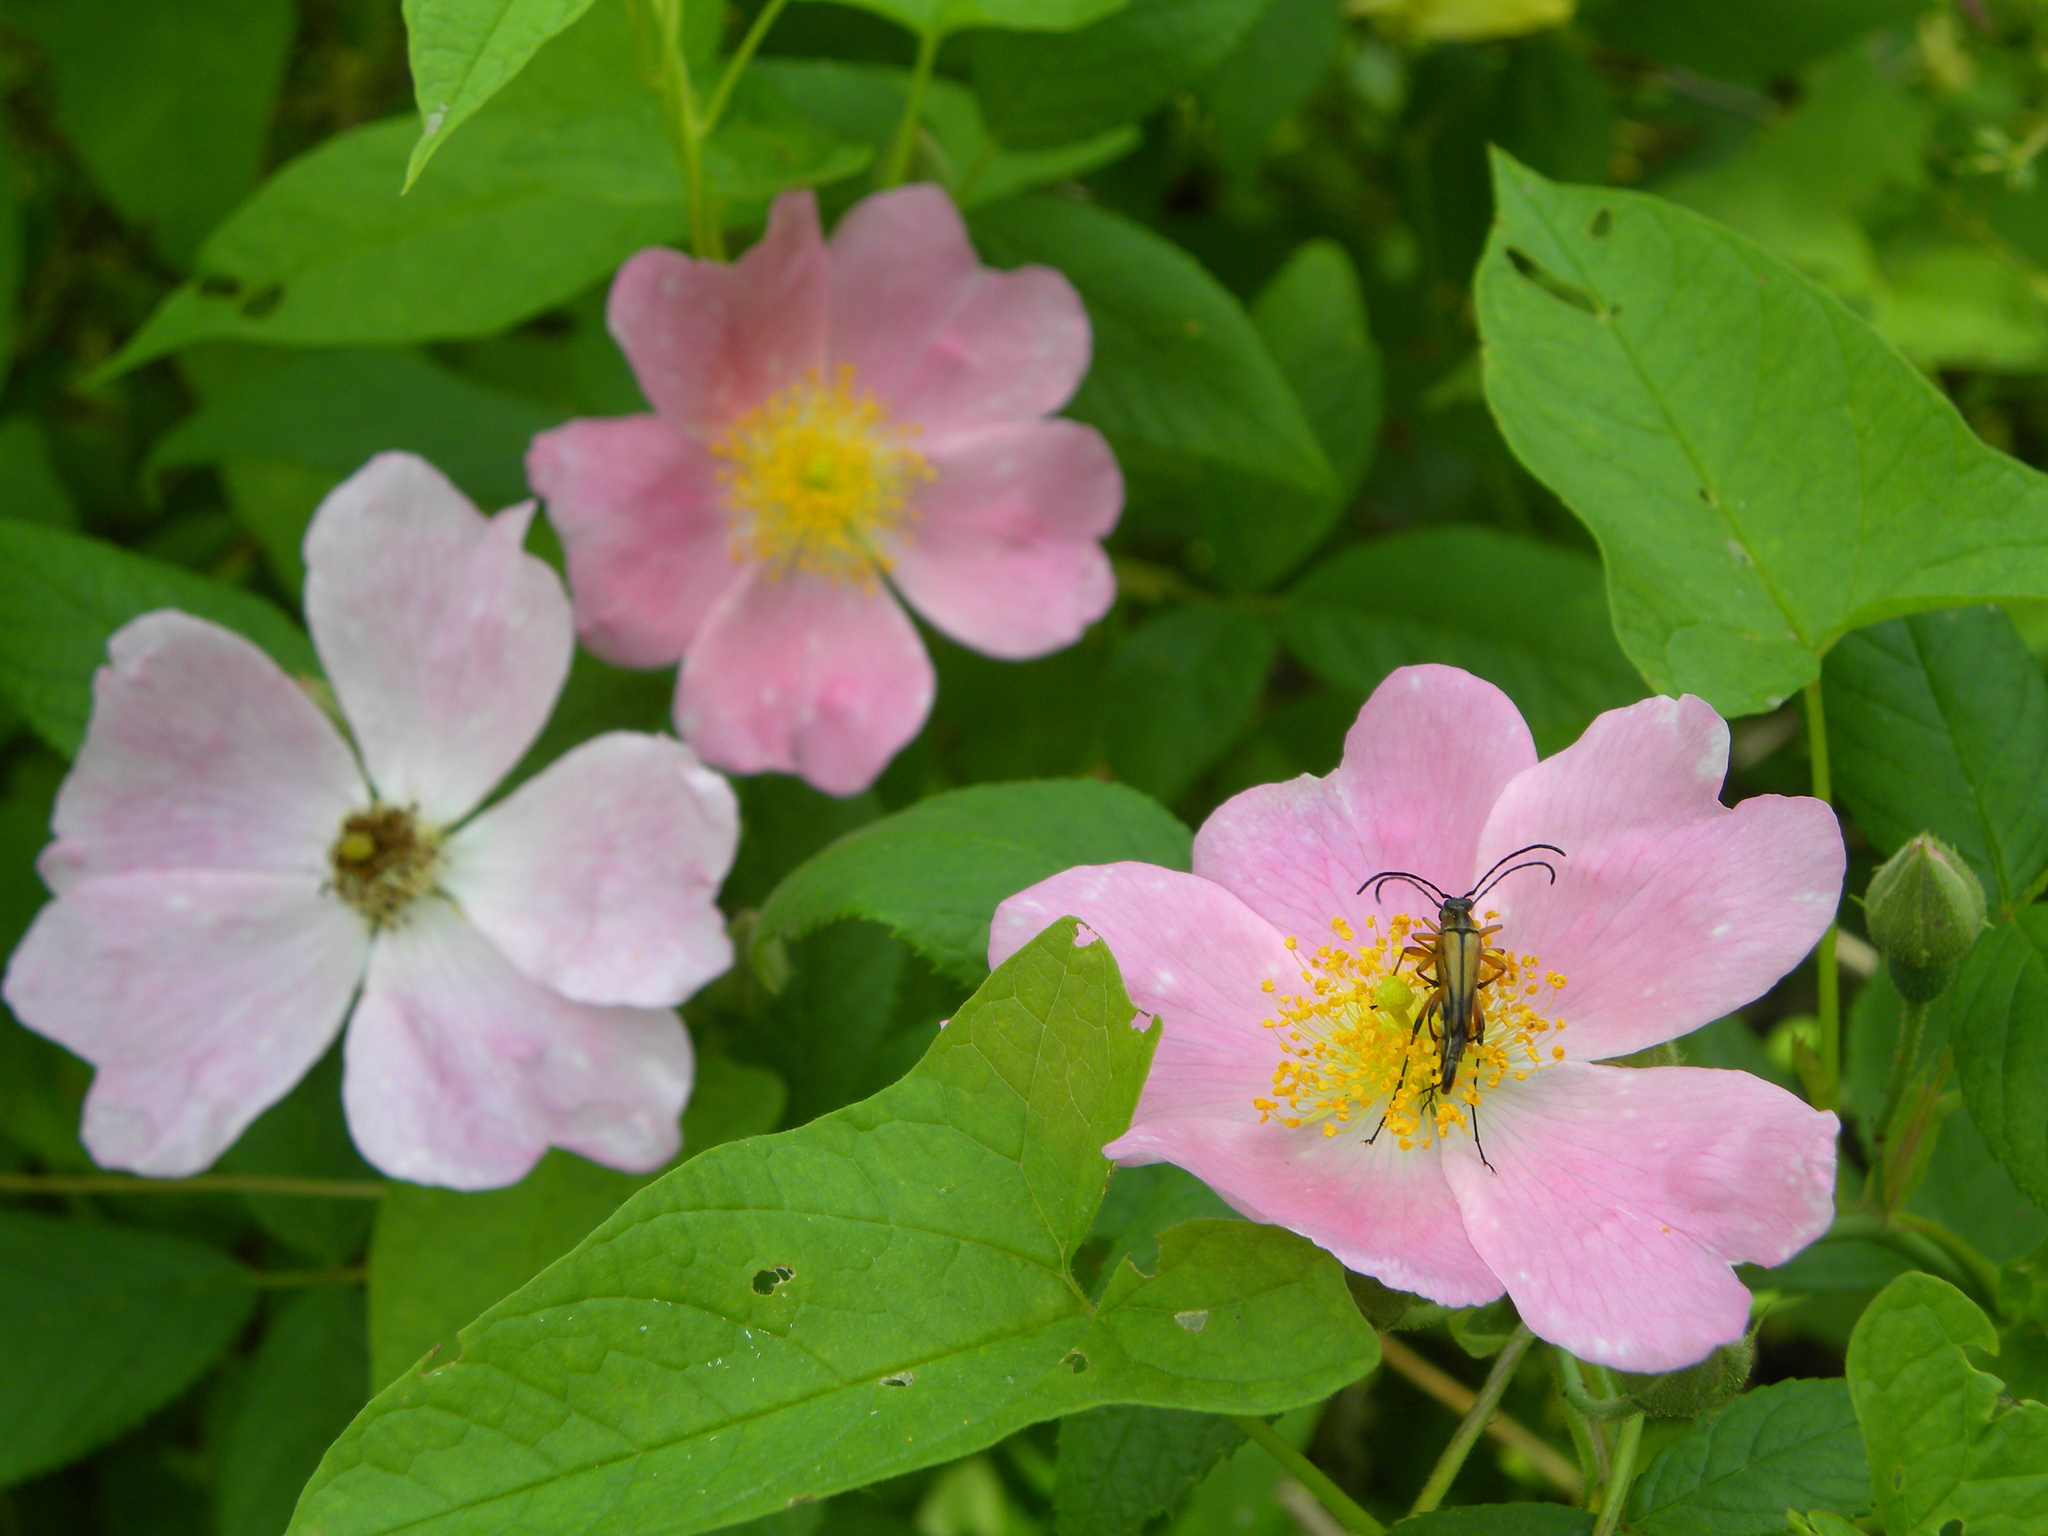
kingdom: Animalia
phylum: Arthropoda
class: Insecta
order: Coleoptera
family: Cerambycidae
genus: Strangalia
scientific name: Strangalia famelica
